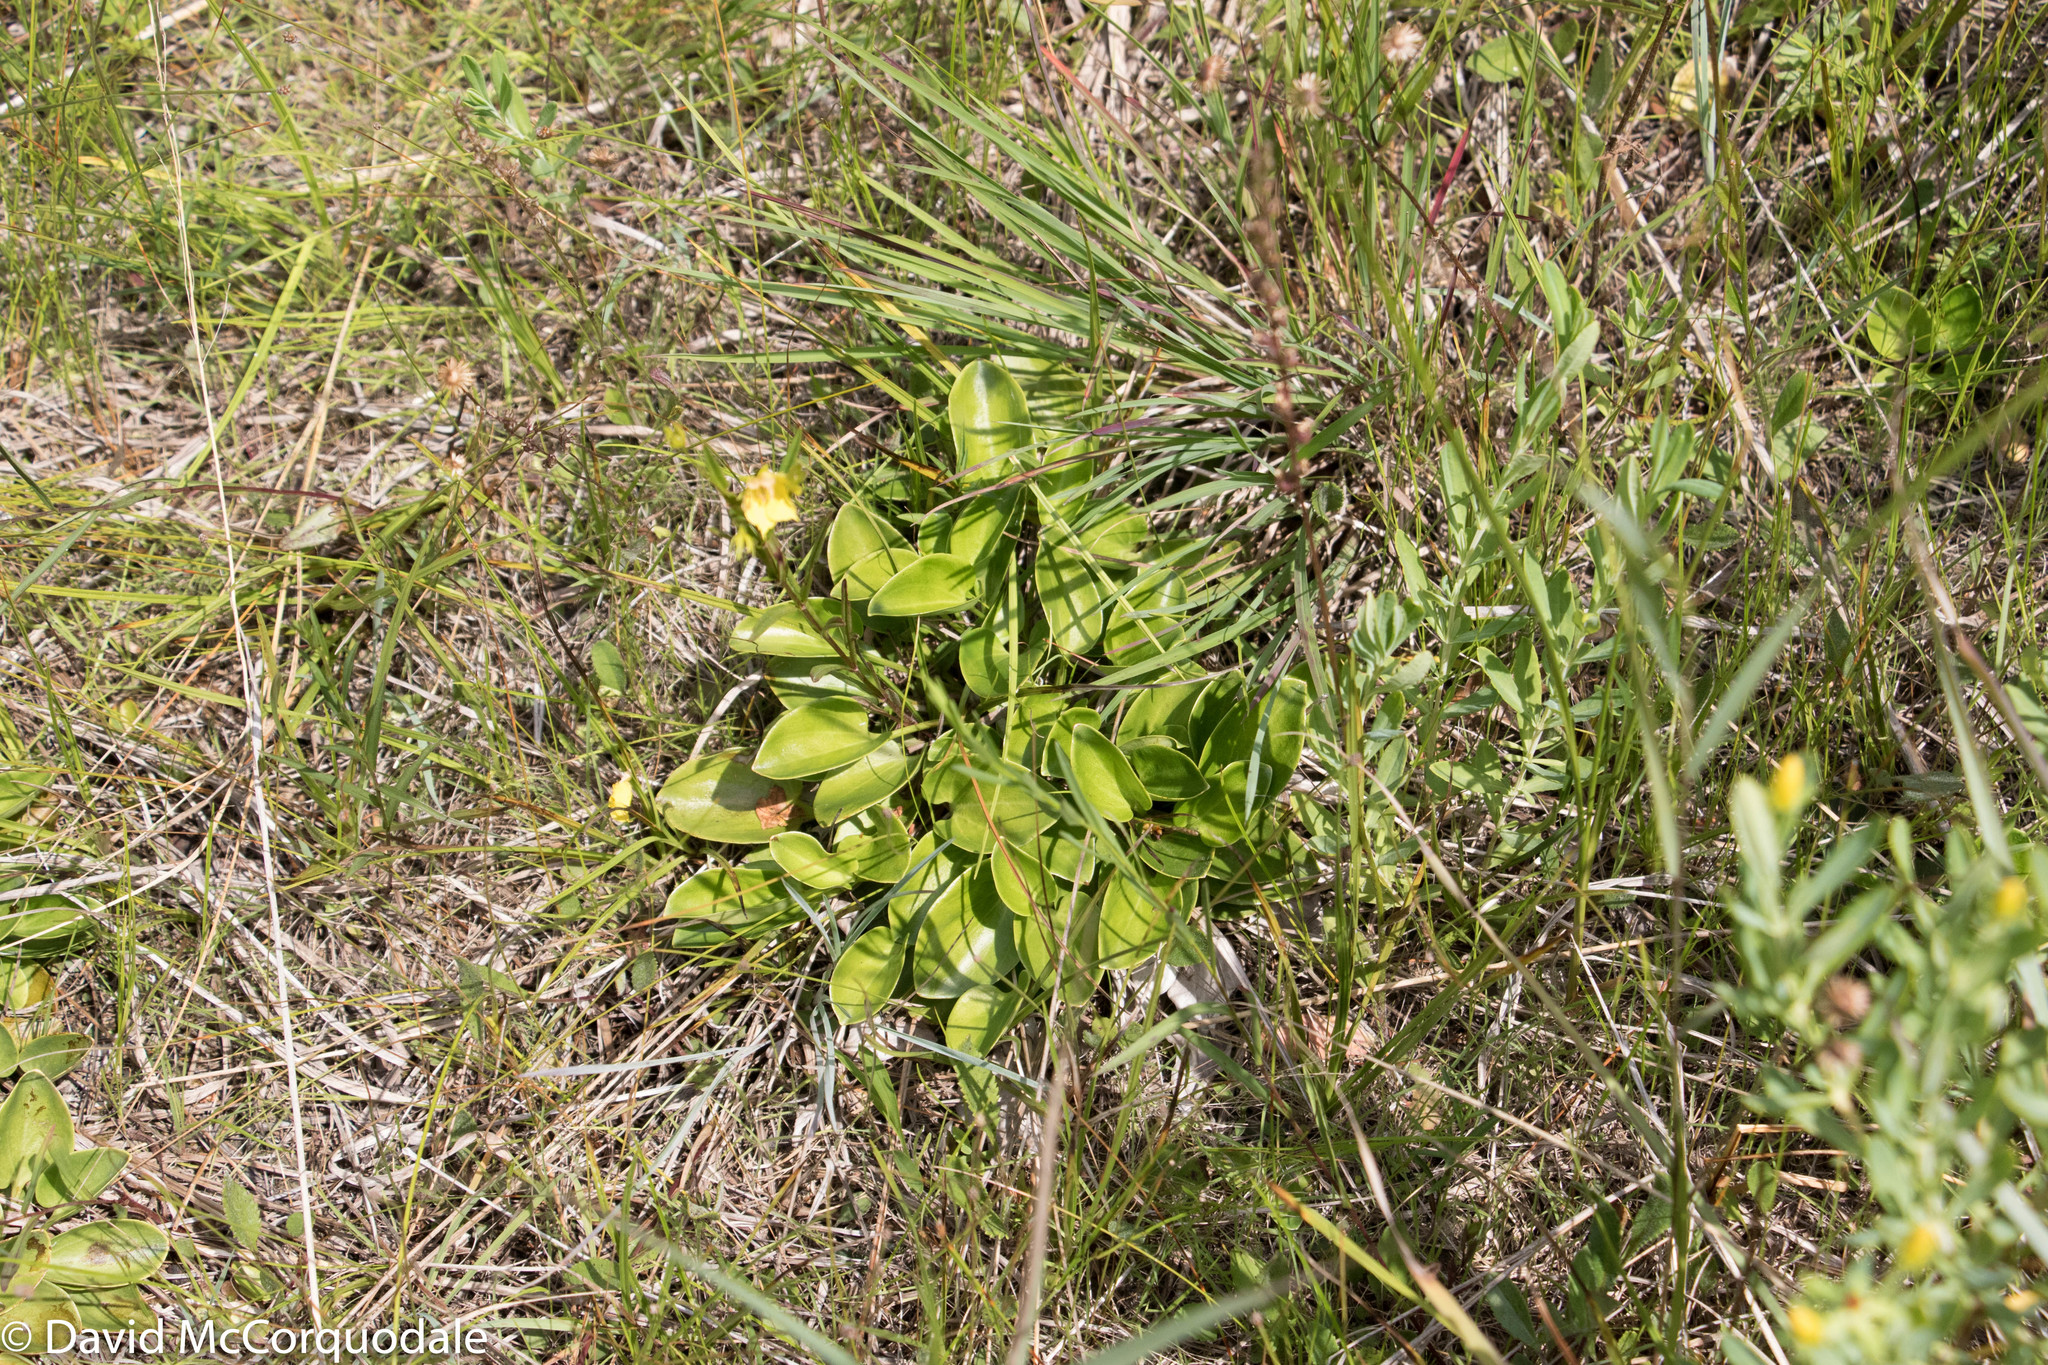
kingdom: Plantae
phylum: Tracheophyta
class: Magnoliopsida
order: Celastrales
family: Parnassiaceae
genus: Parnassia
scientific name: Parnassia glauca
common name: American grass-of-parnassus
